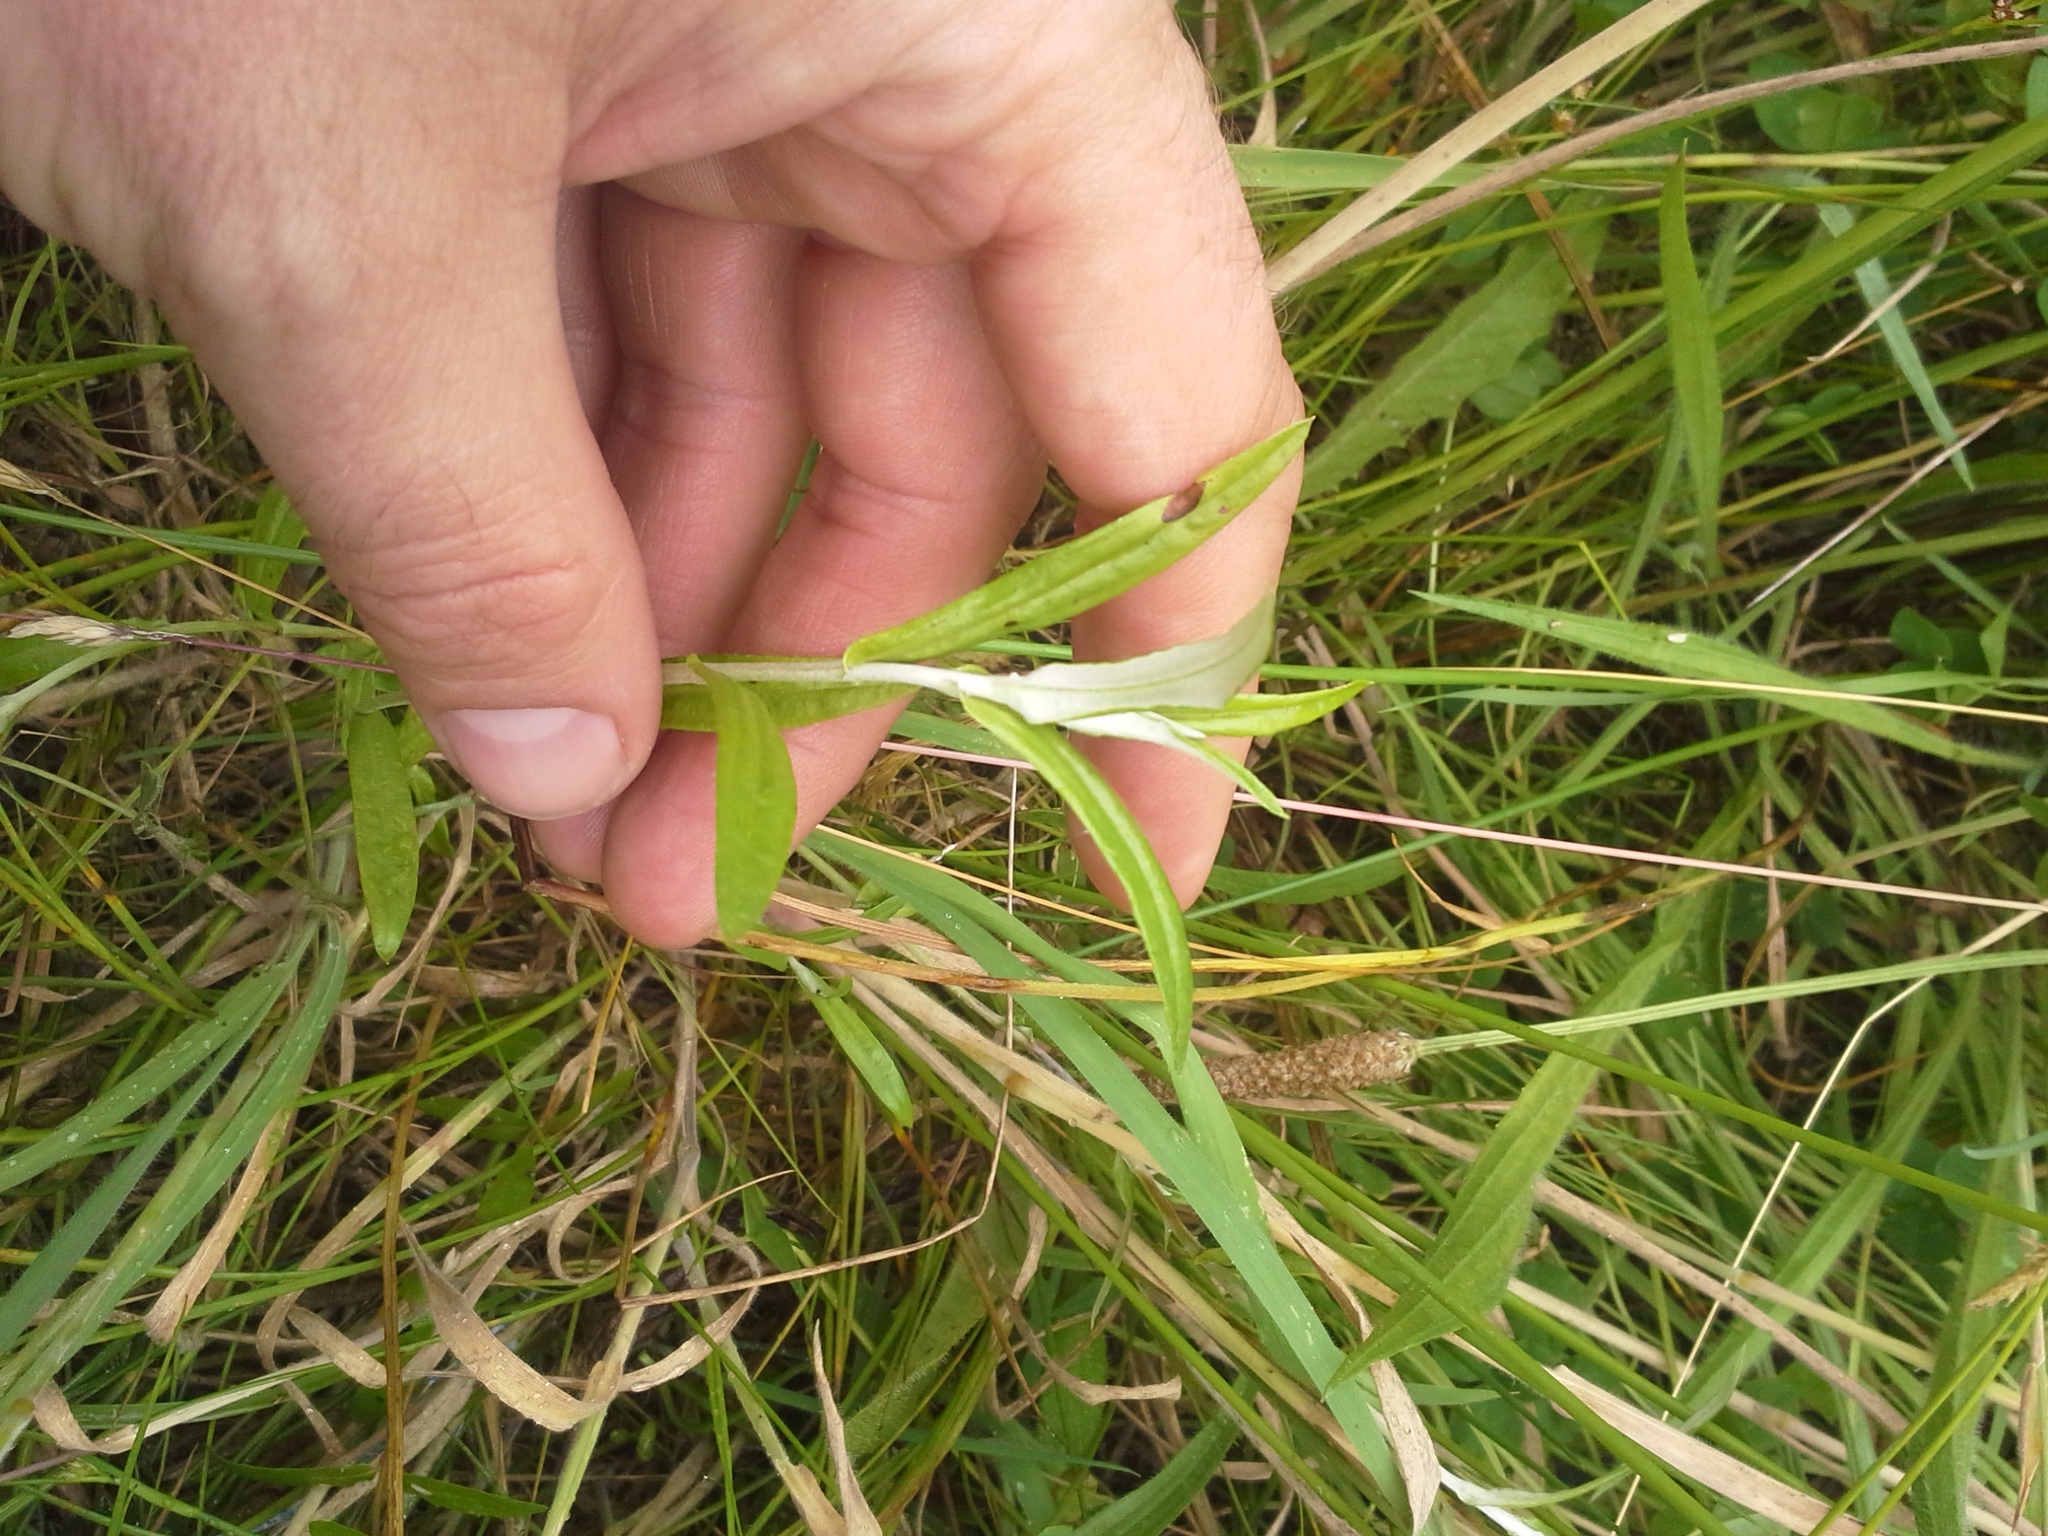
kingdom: Plantae
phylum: Tracheophyta
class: Magnoliopsida
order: Asterales
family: Asteraceae
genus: Euchiton
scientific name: Euchiton limosus
